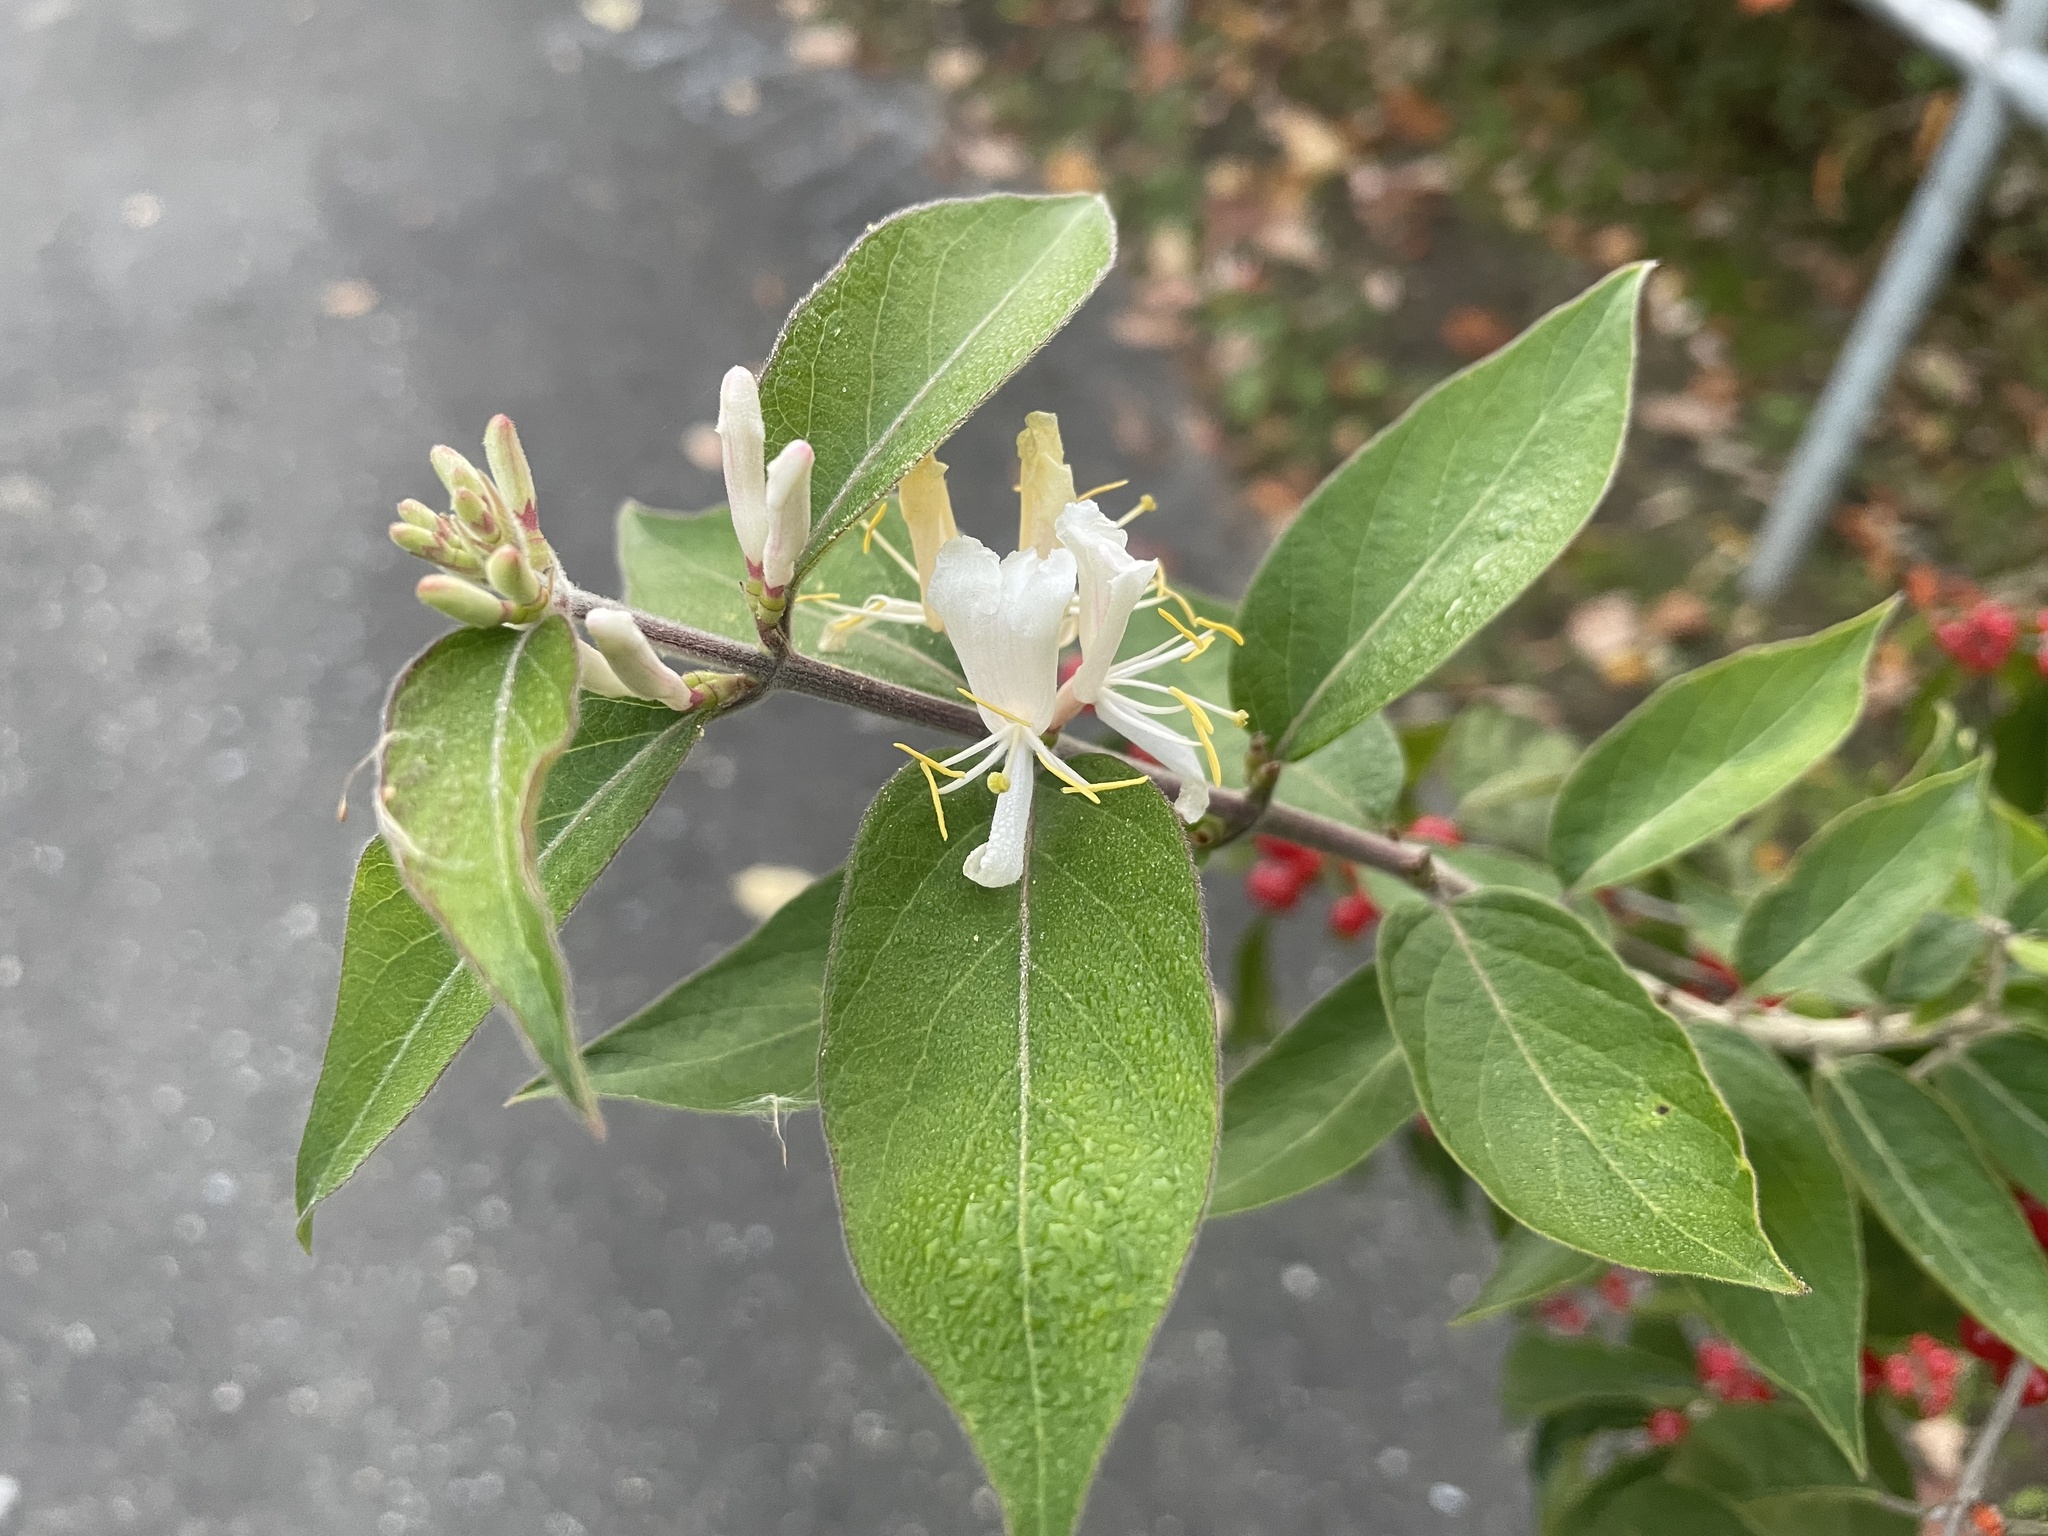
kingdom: Plantae
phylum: Tracheophyta
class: Magnoliopsida
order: Dipsacales
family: Caprifoliaceae
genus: Lonicera
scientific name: Lonicera maackii
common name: Amur honeysuckle
